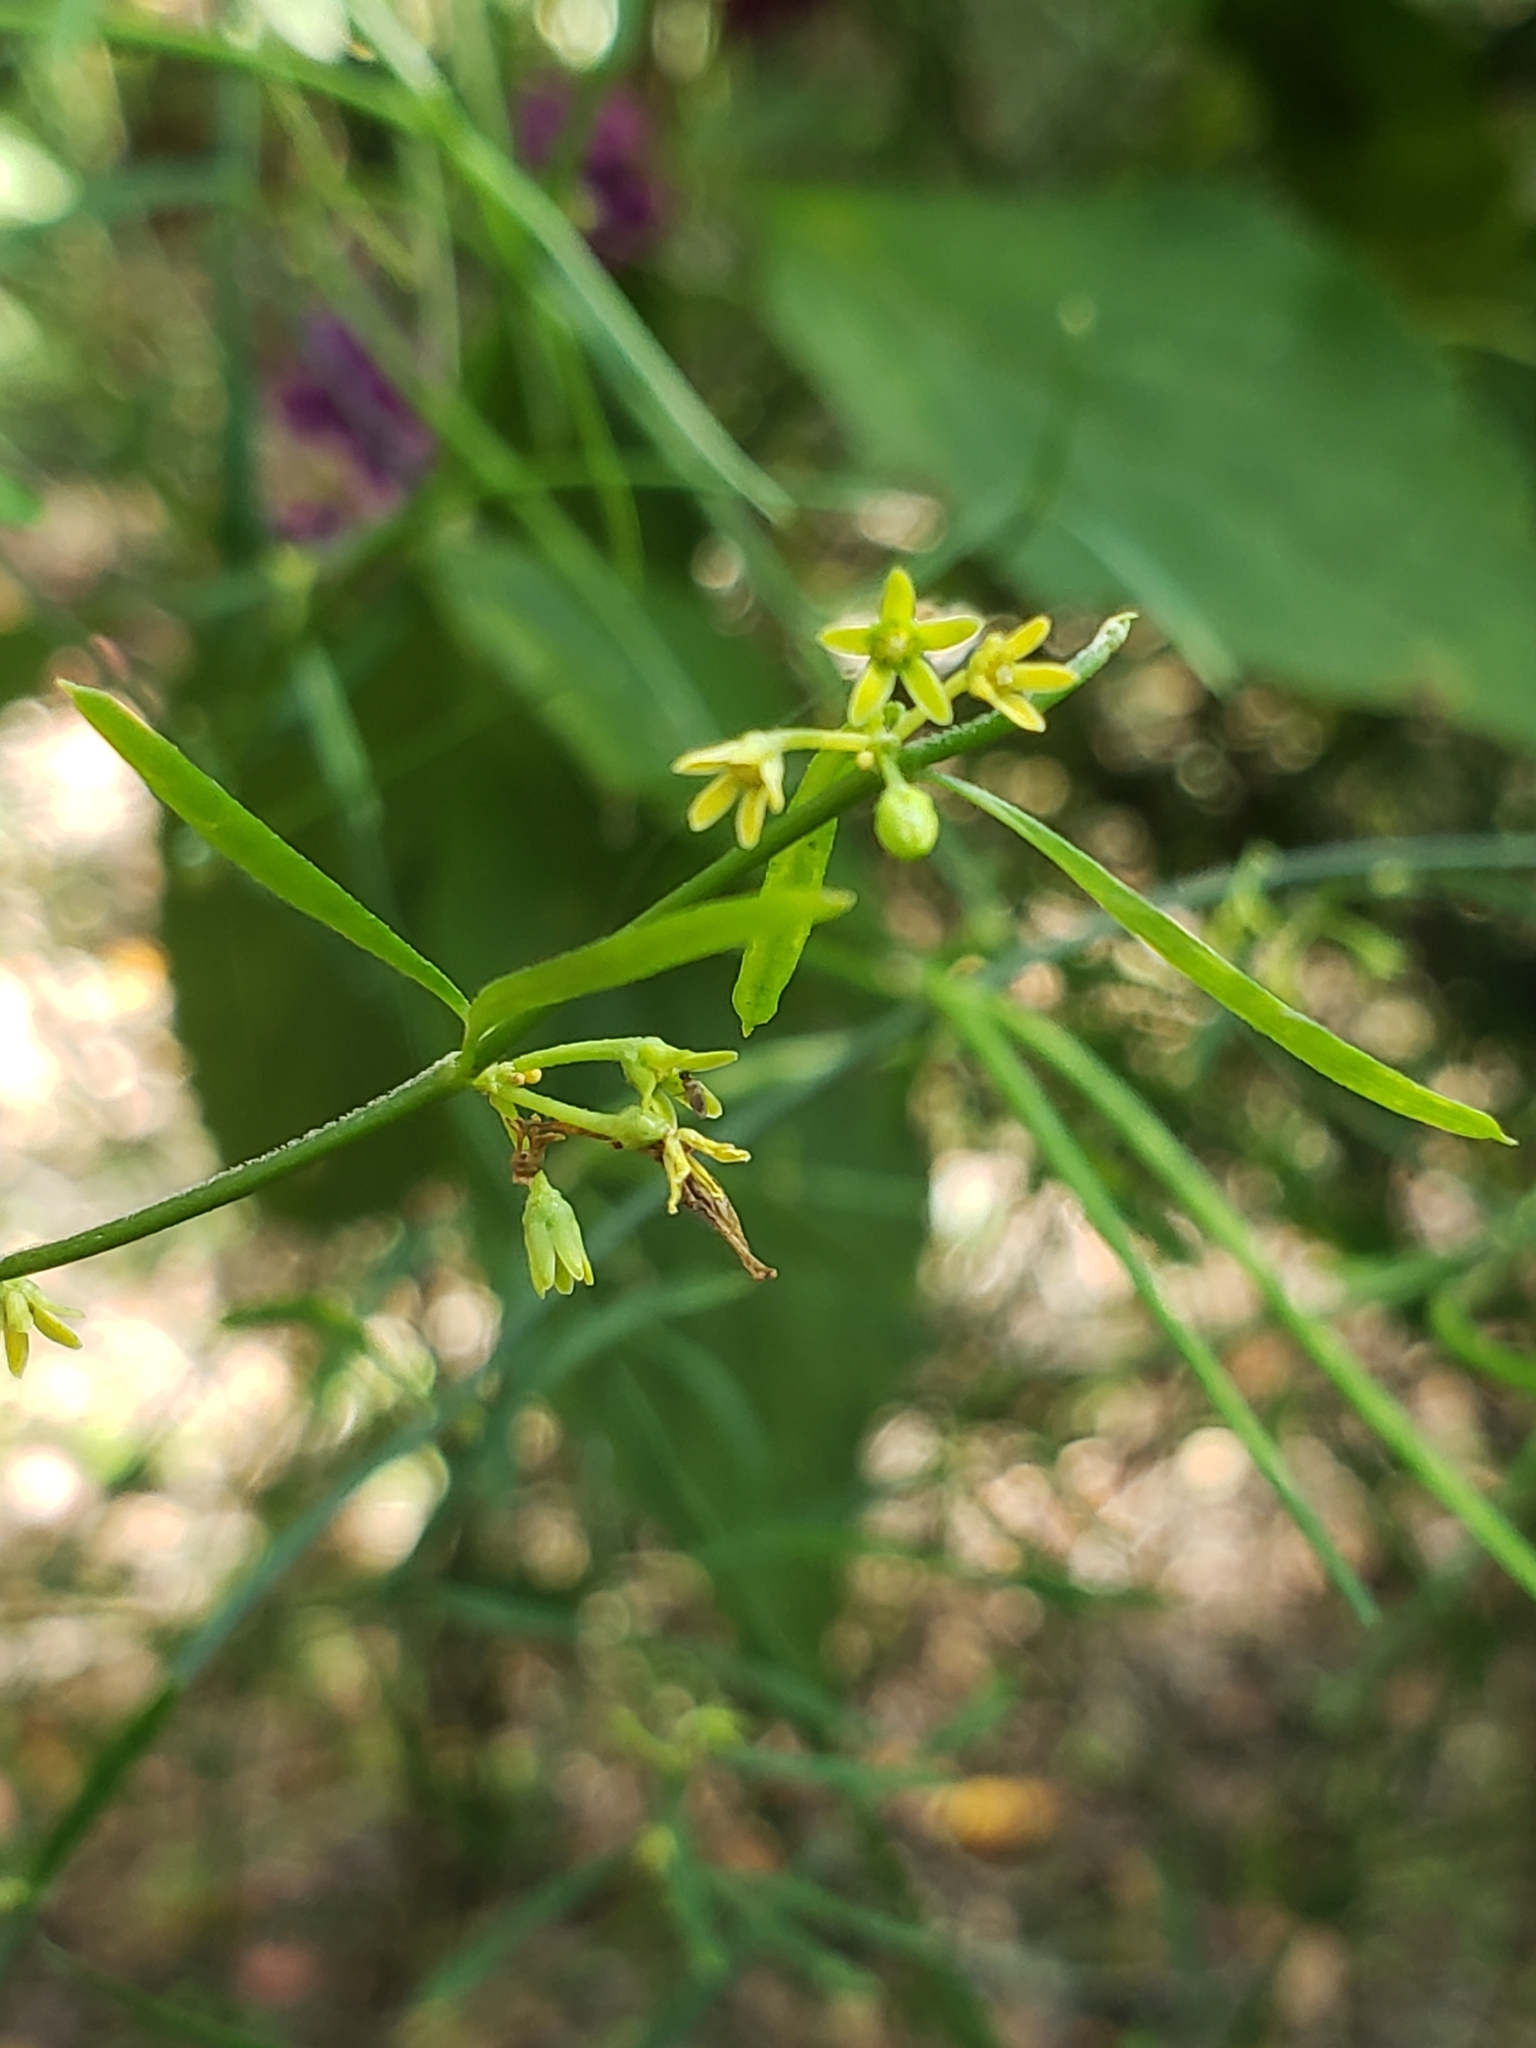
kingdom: Plantae
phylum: Tracheophyta
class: Magnoliopsida
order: Gentianales
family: Apocynaceae
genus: Orthosia
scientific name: Orthosia scoparia
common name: Leafless swallow-wort
